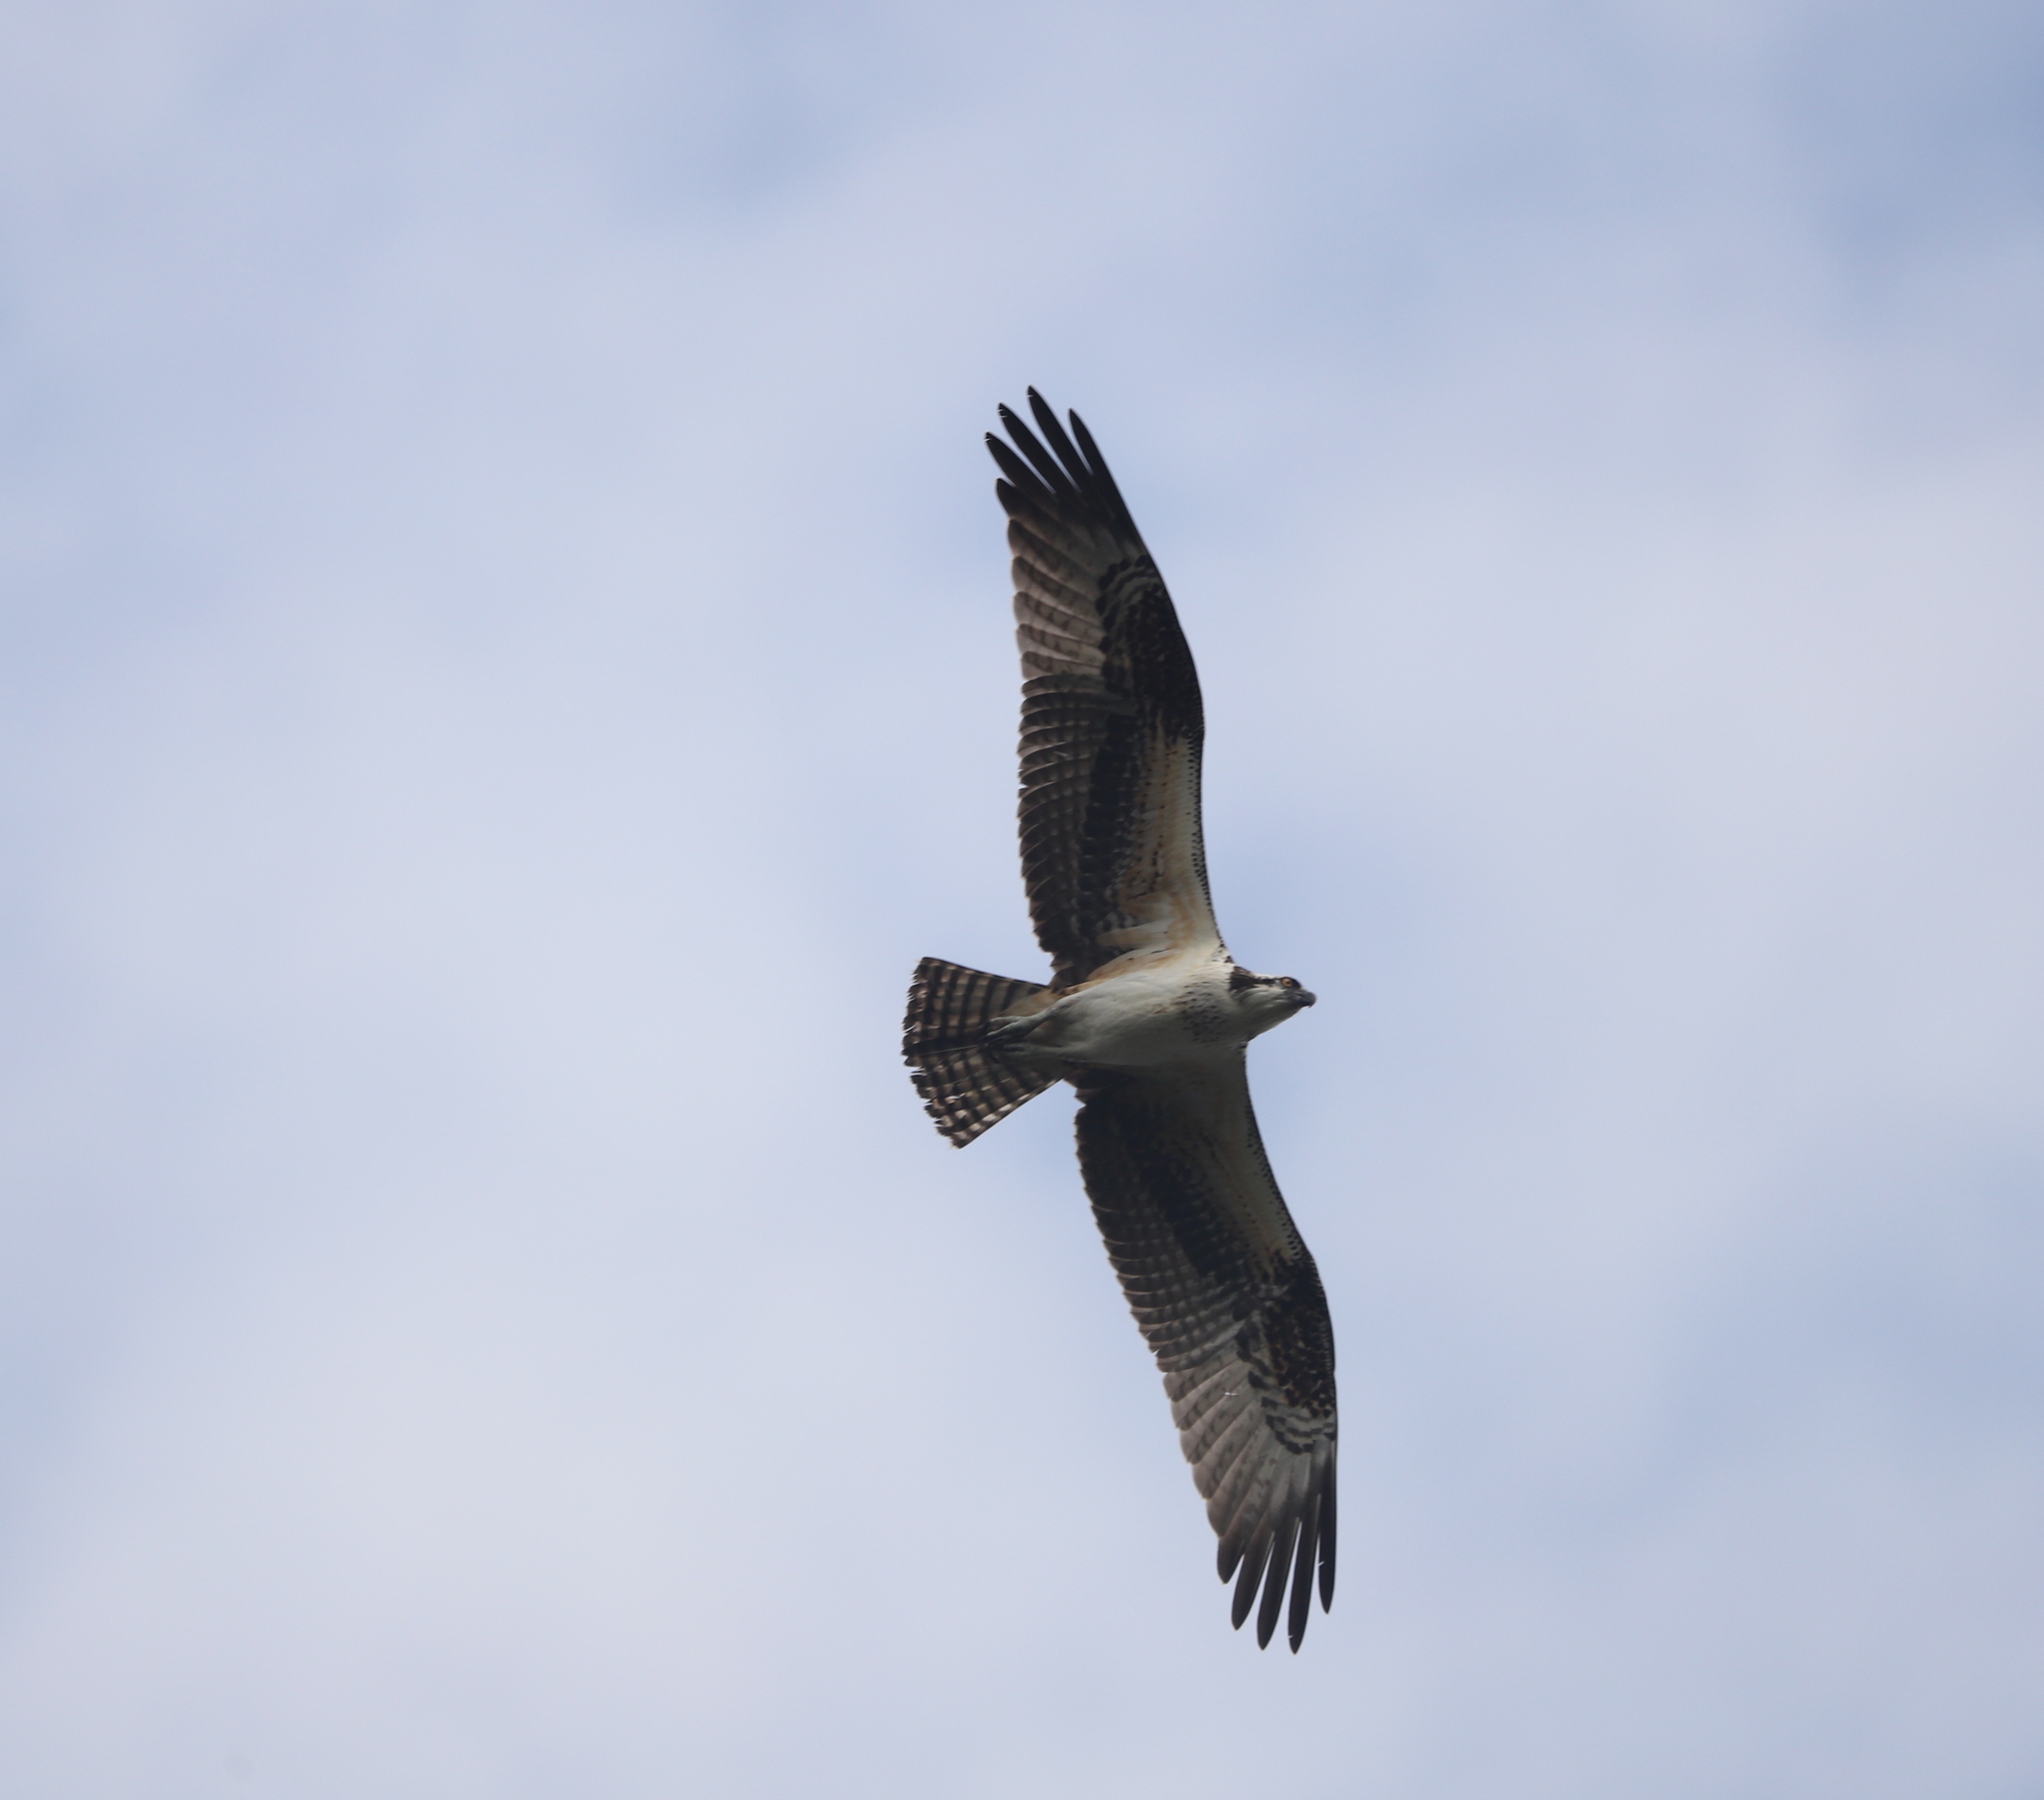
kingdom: Animalia
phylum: Chordata
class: Aves
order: Accipitriformes
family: Pandionidae
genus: Pandion
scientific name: Pandion haliaetus
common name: Osprey
